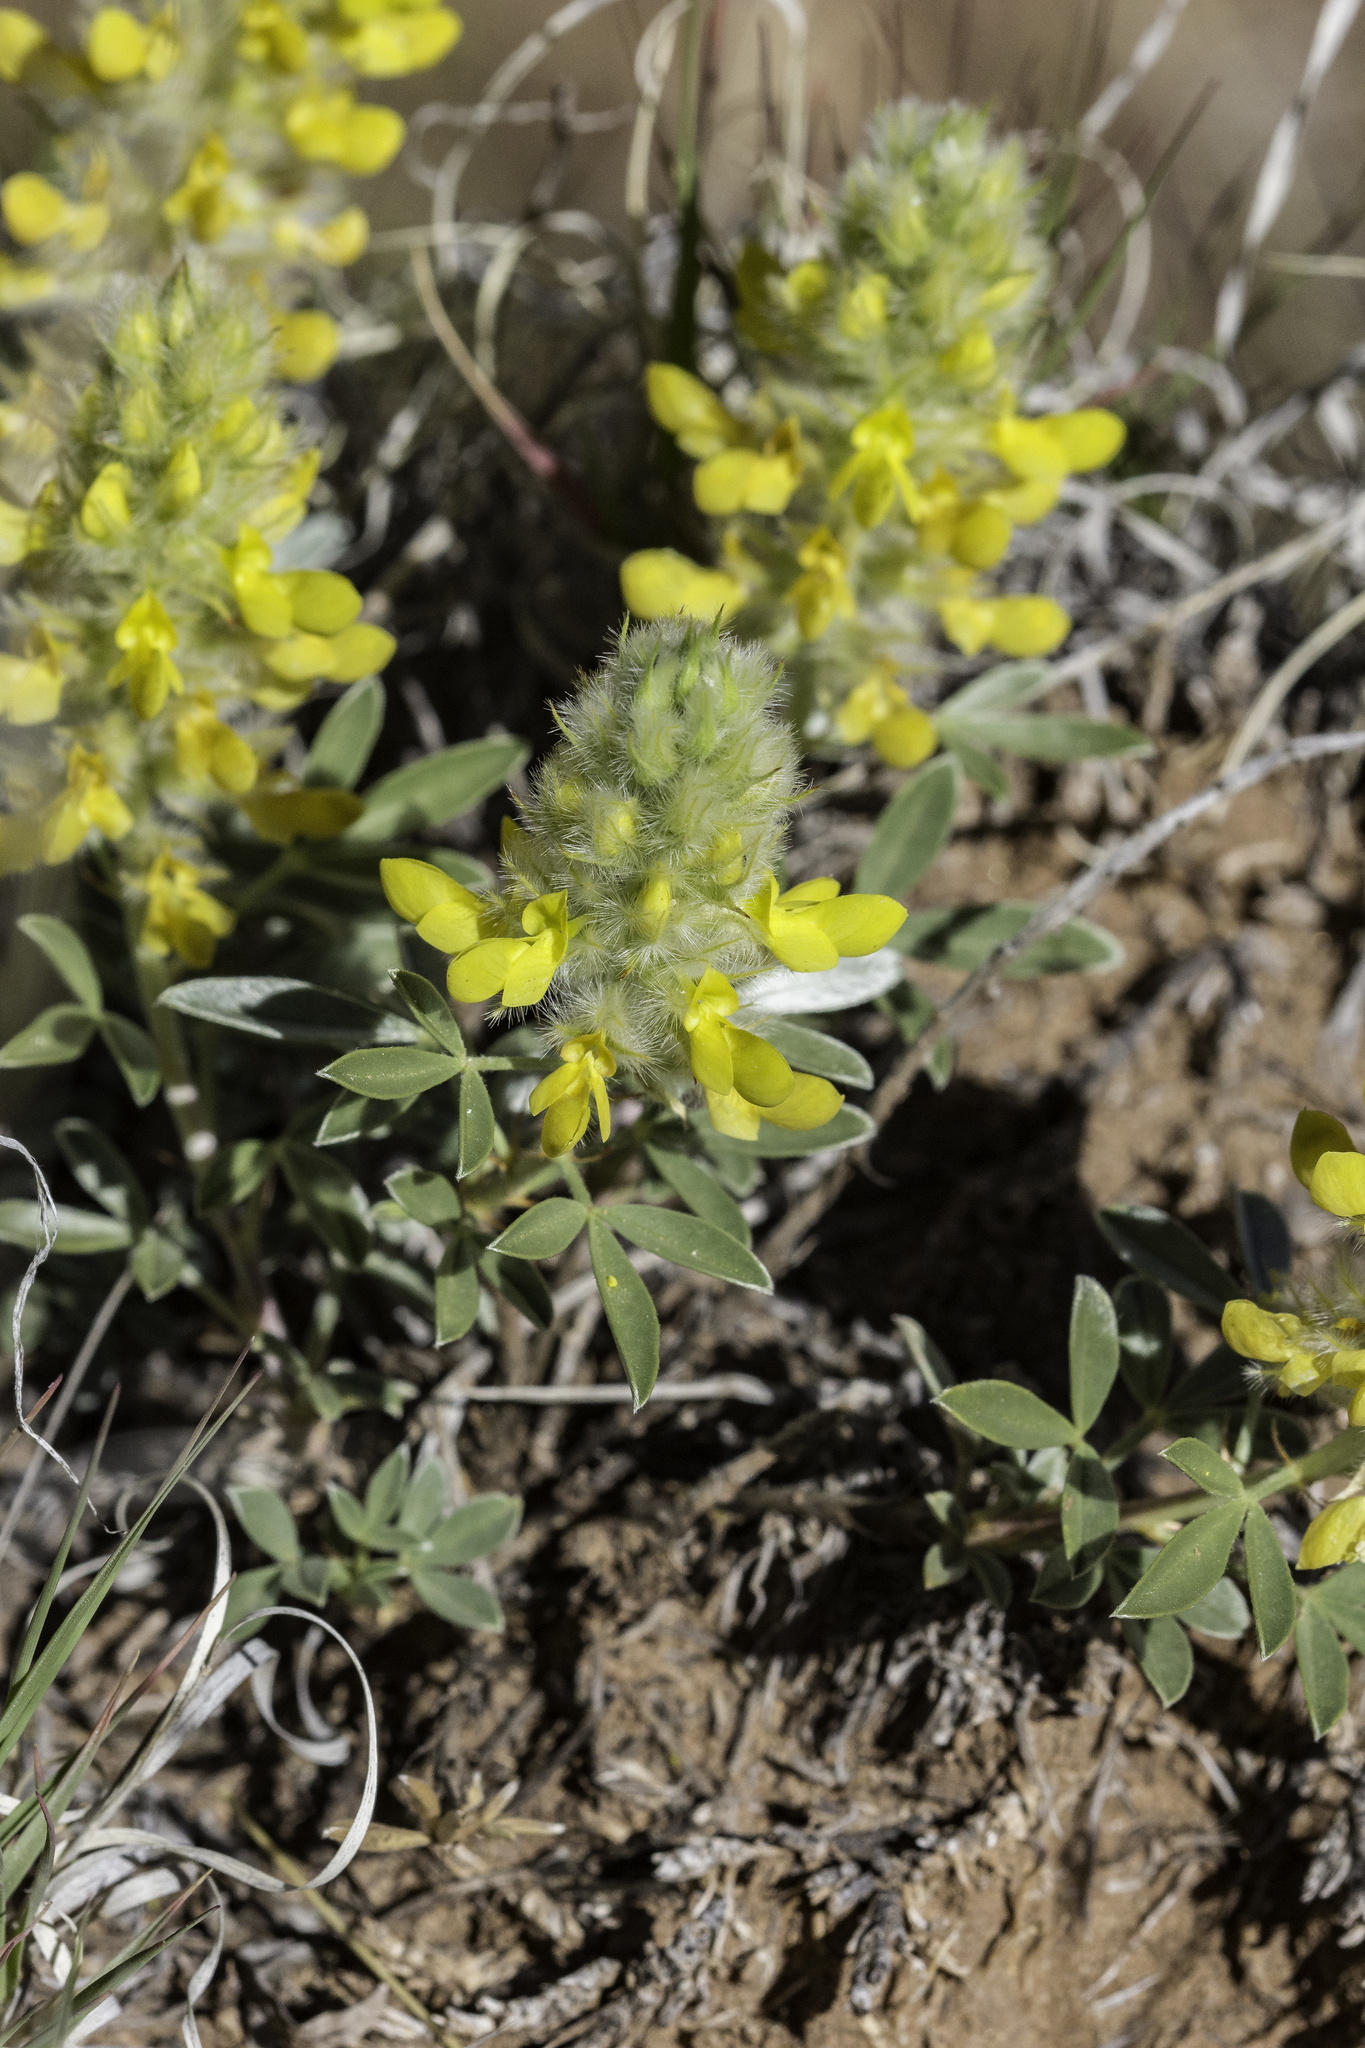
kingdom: Plantae
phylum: Tracheophyta
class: Magnoliopsida
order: Fabales
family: Fabaceae
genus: Dalea
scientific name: Dalea jamesii
